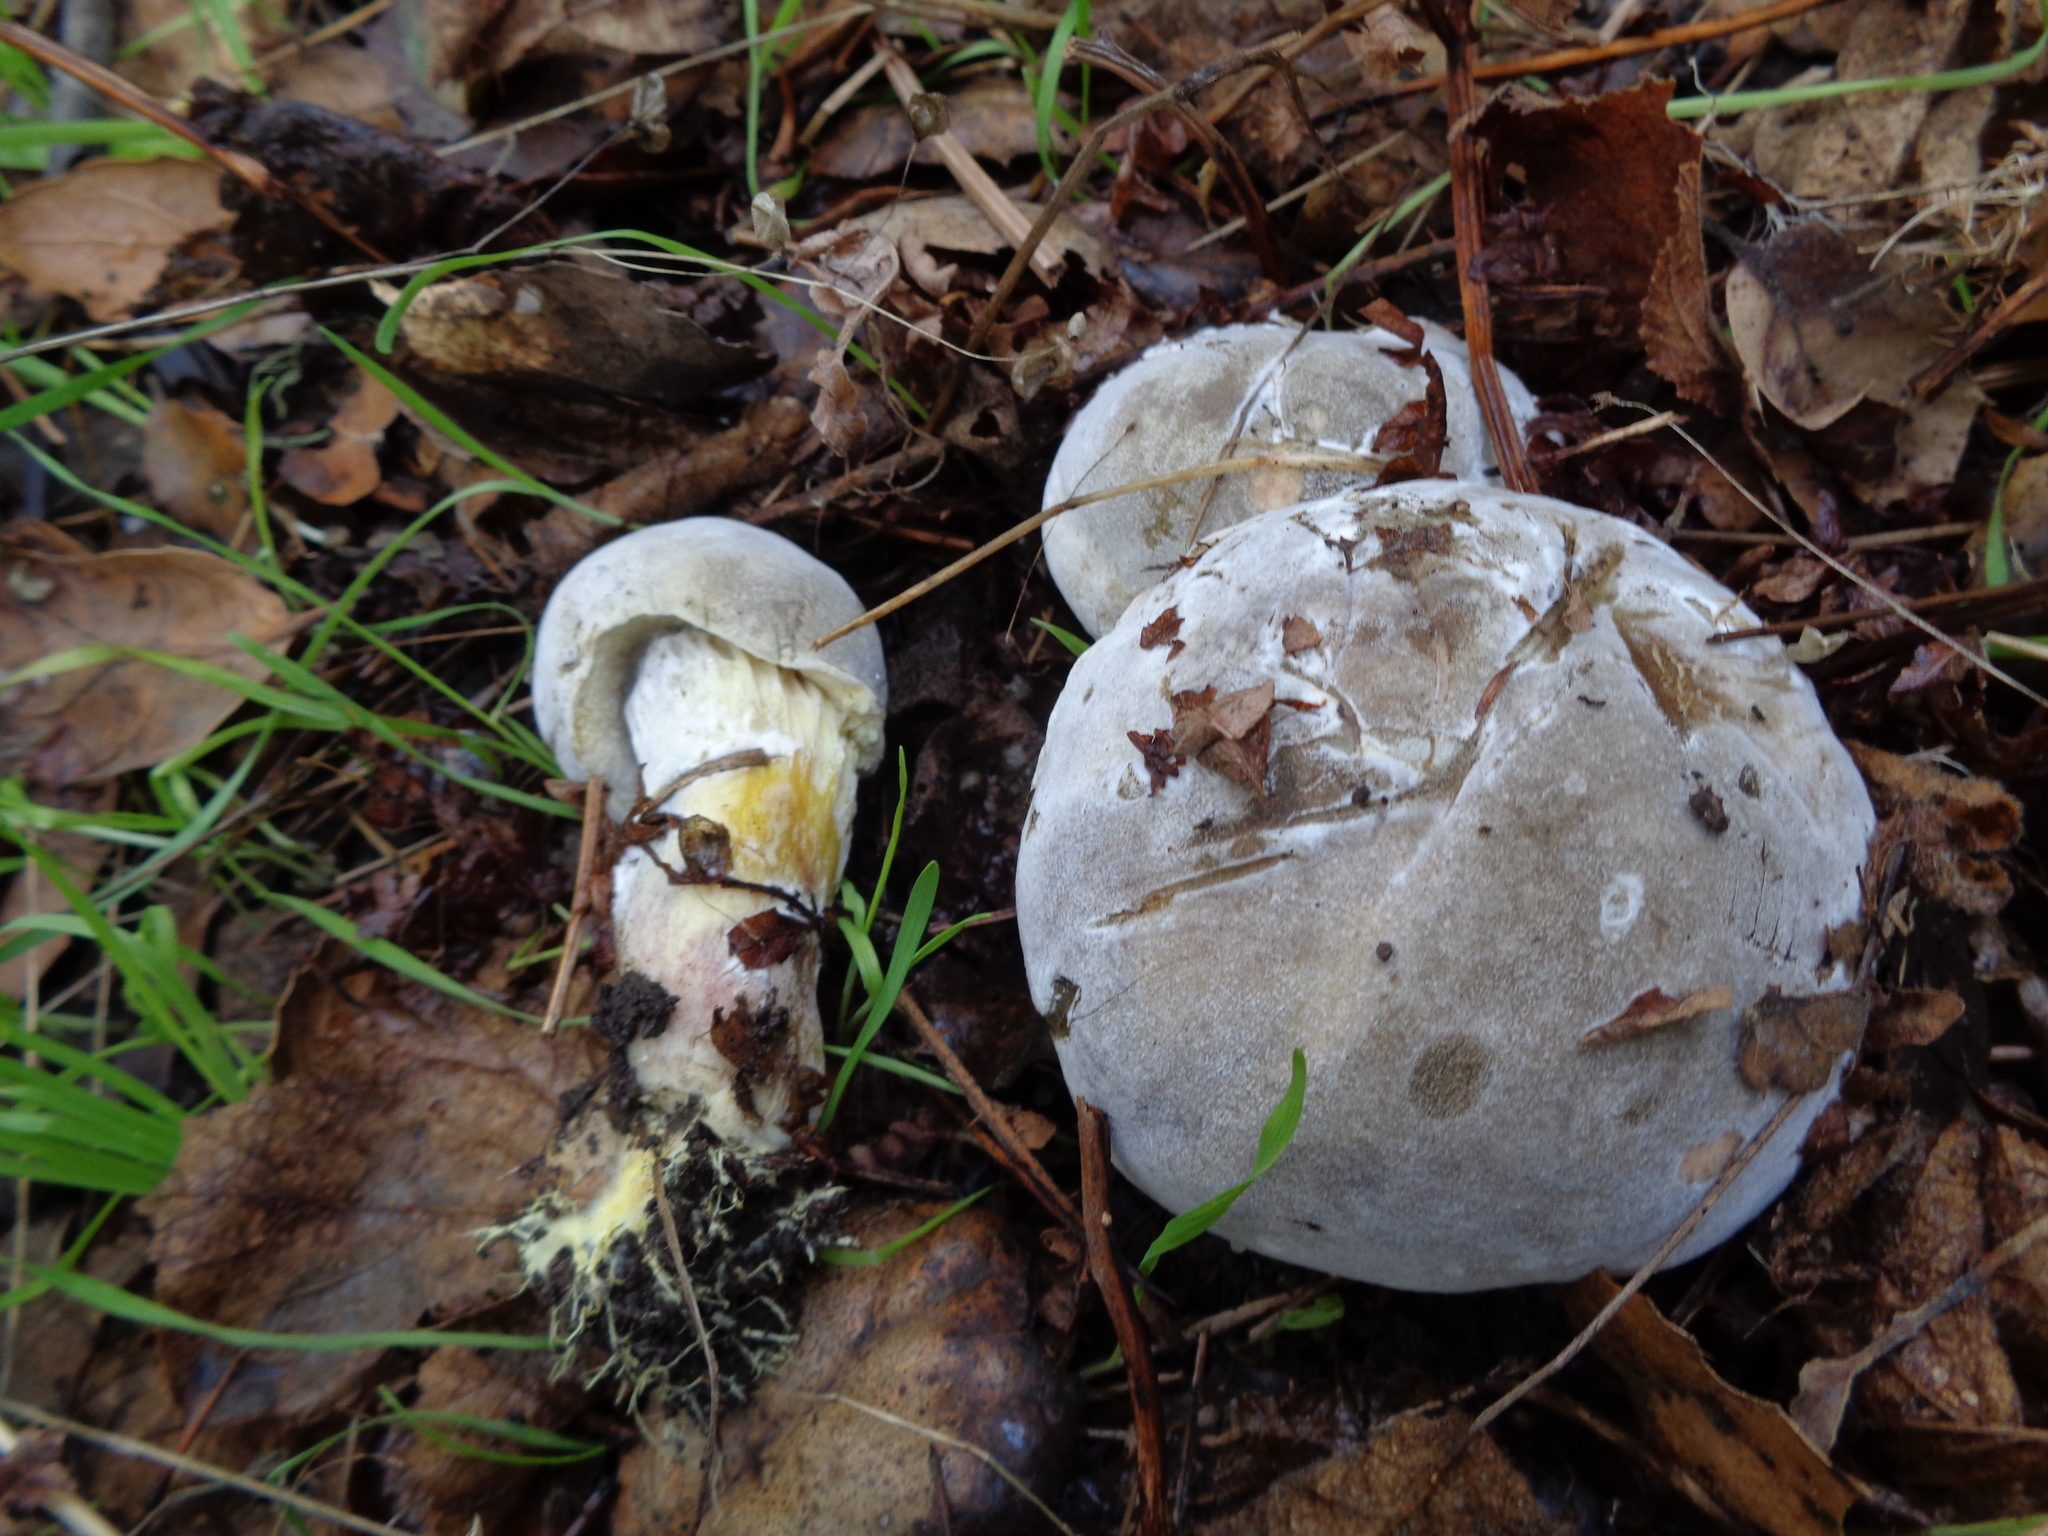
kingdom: Fungi
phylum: Ascomycota
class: Sordariomycetes
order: Hypocreales
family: Hypocreaceae
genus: Hypomyces
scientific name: Hypomyces chrysospermus
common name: Bolete mould
